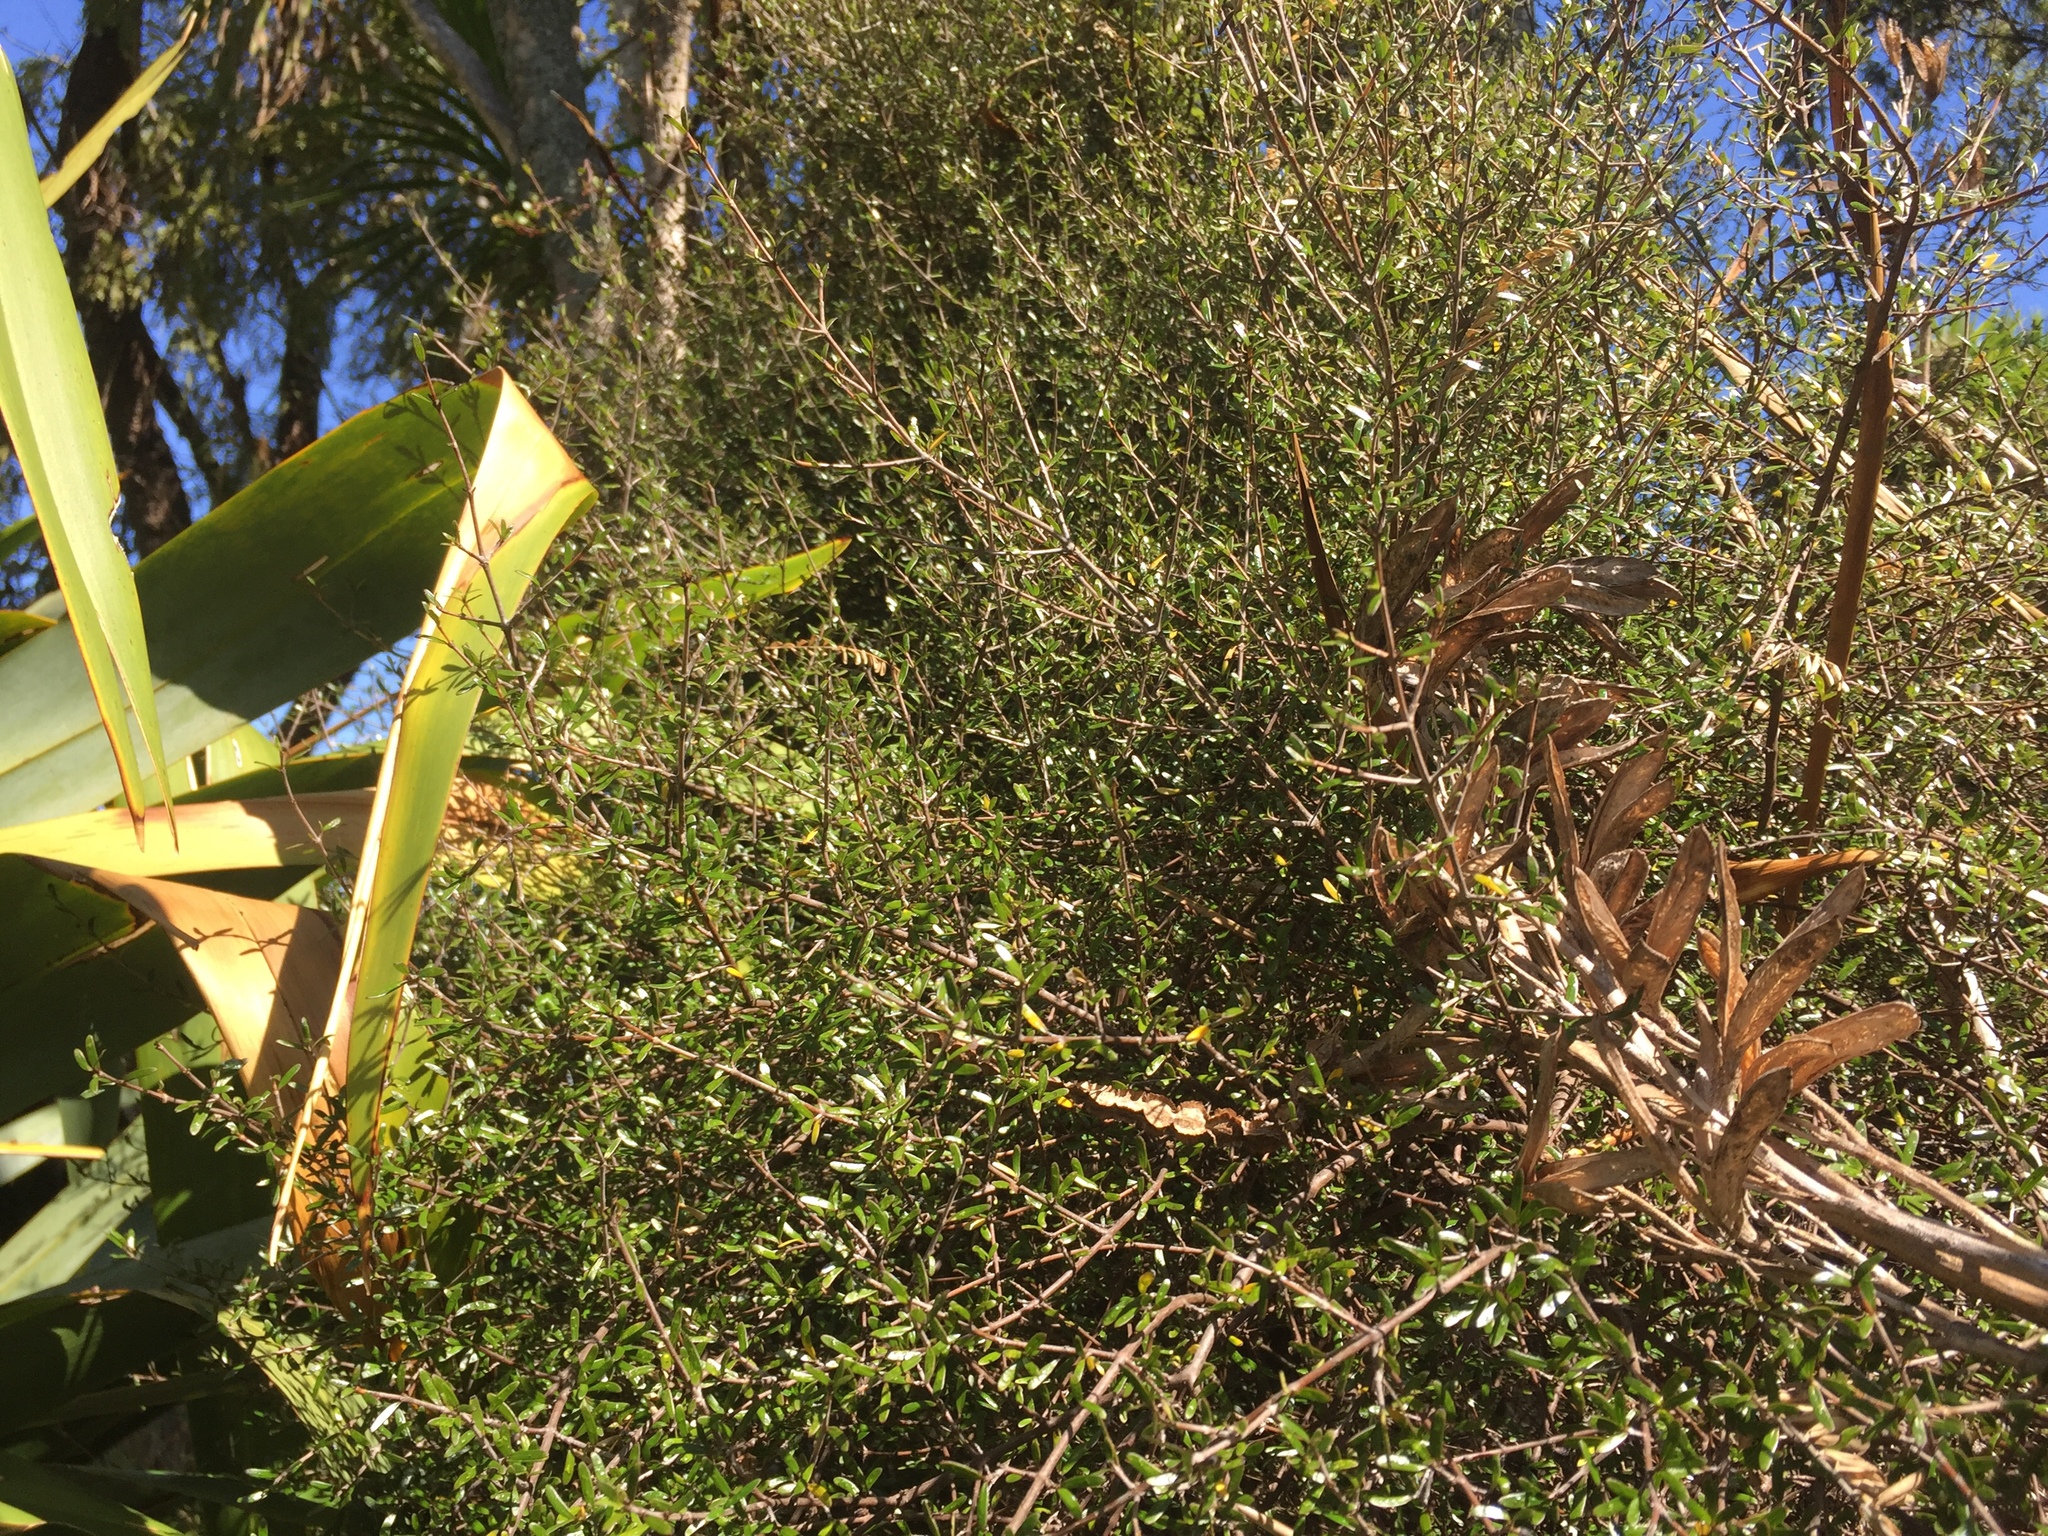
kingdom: Plantae
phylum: Tracheophyta
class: Magnoliopsida
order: Gentianales
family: Rubiaceae
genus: Coprosma
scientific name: Coprosma propinqua
